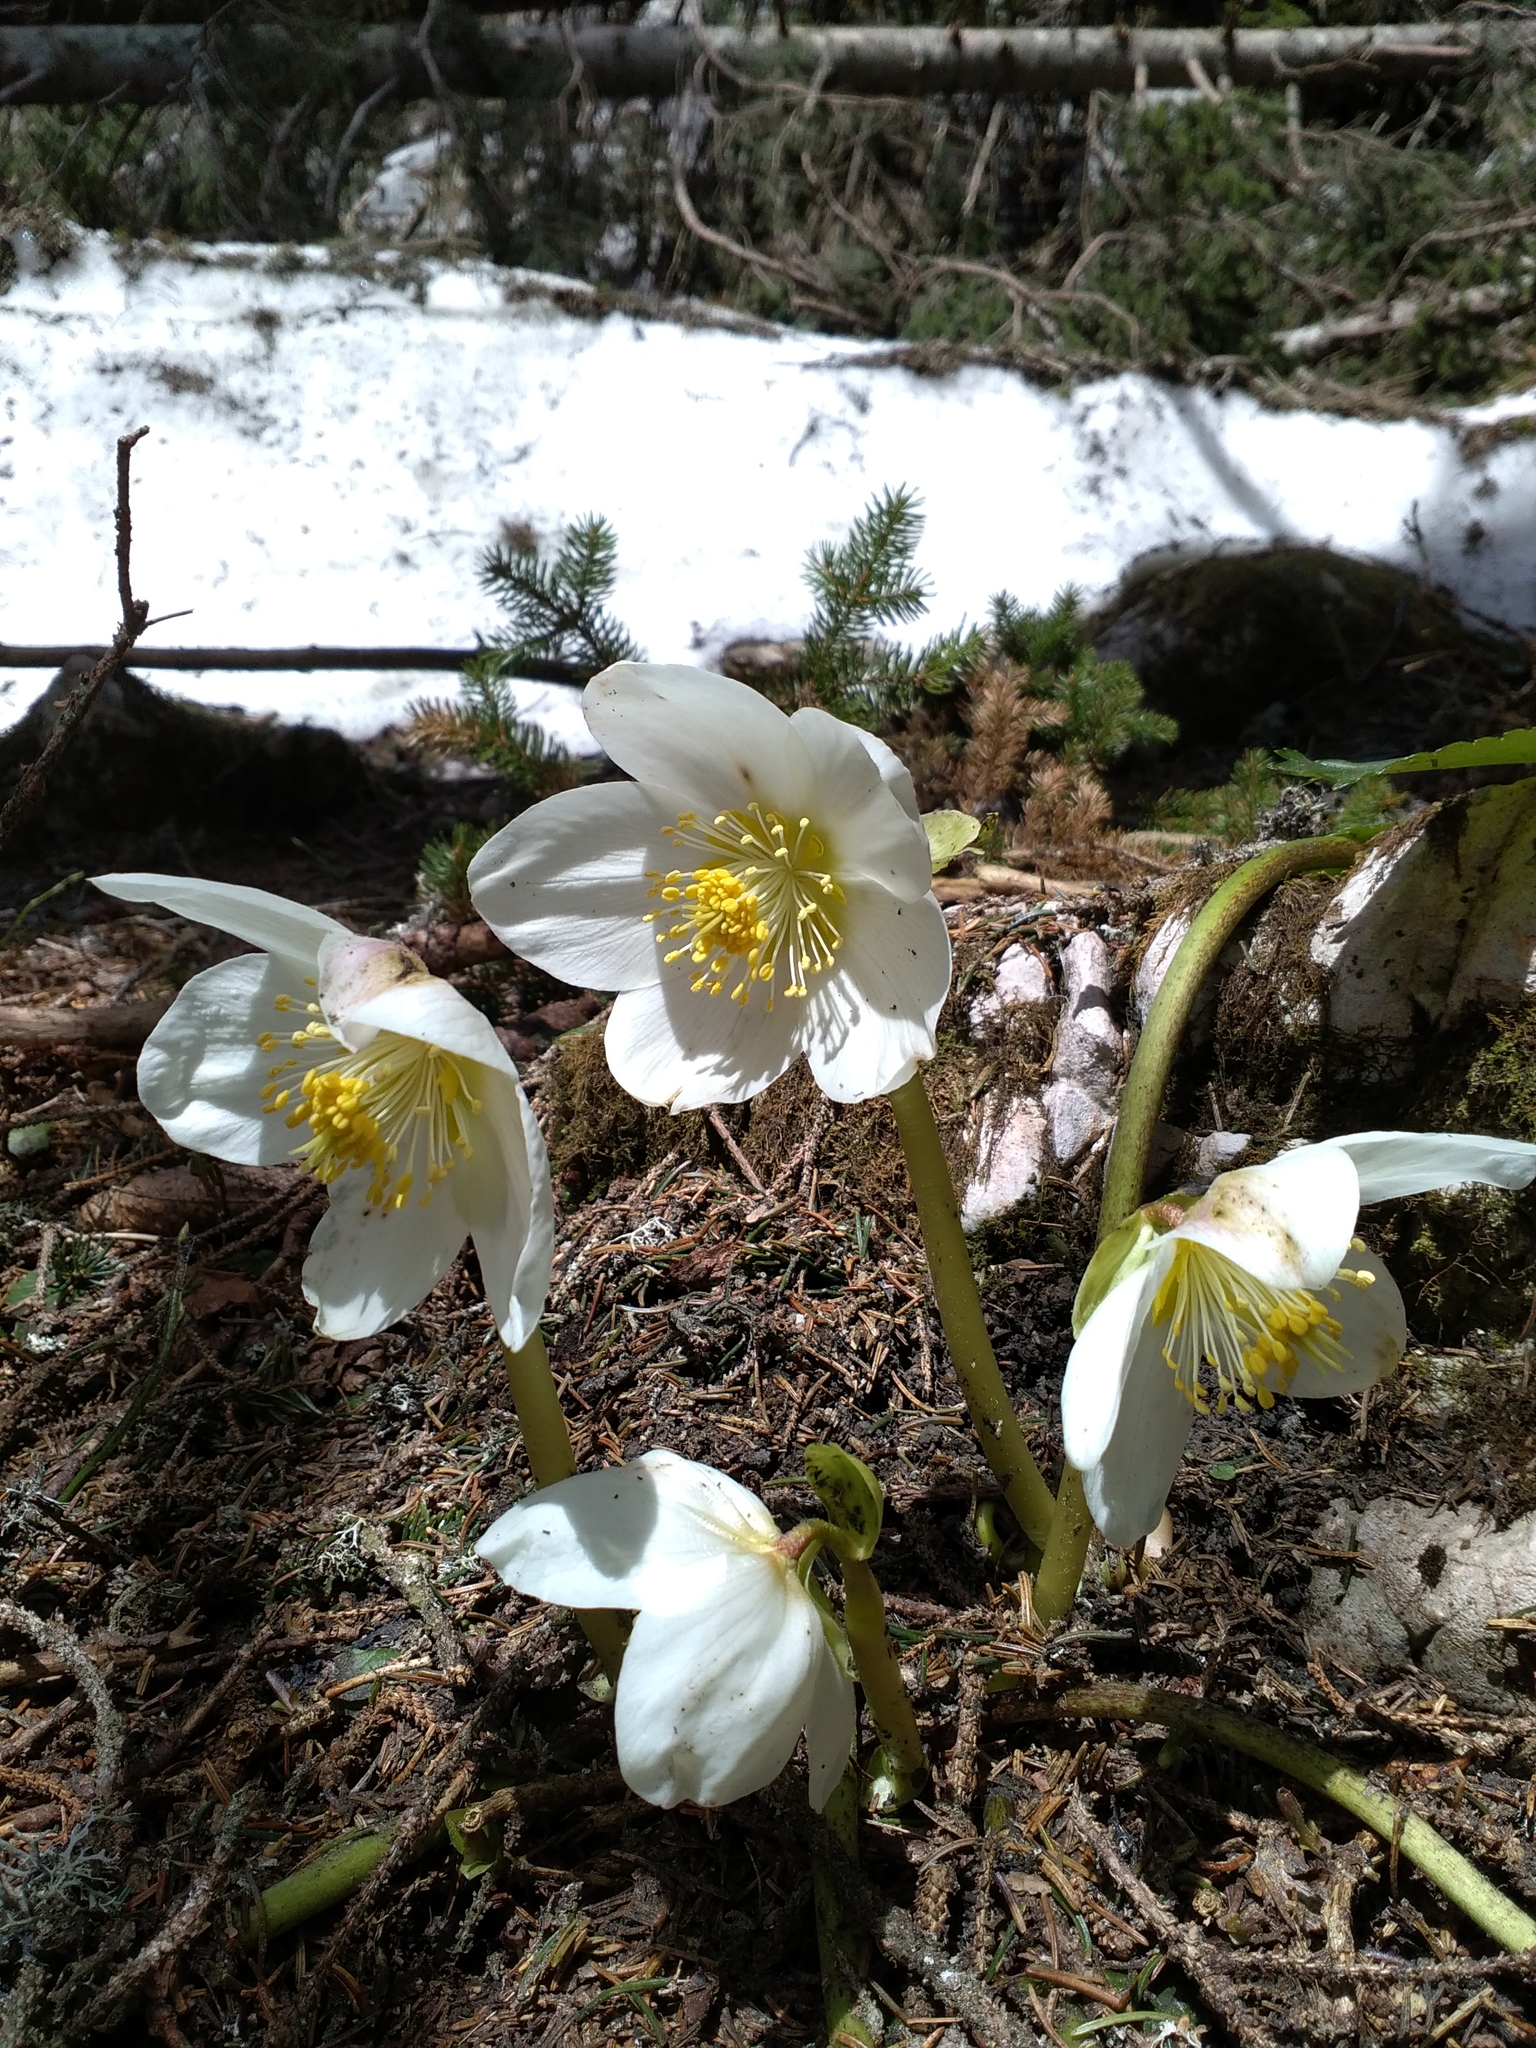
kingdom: Plantae
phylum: Tracheophyta
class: Magnoliopsida
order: Ranunculales
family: Ranunculaceae
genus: Helleborus
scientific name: Helleborus niger
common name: Black hellebore
